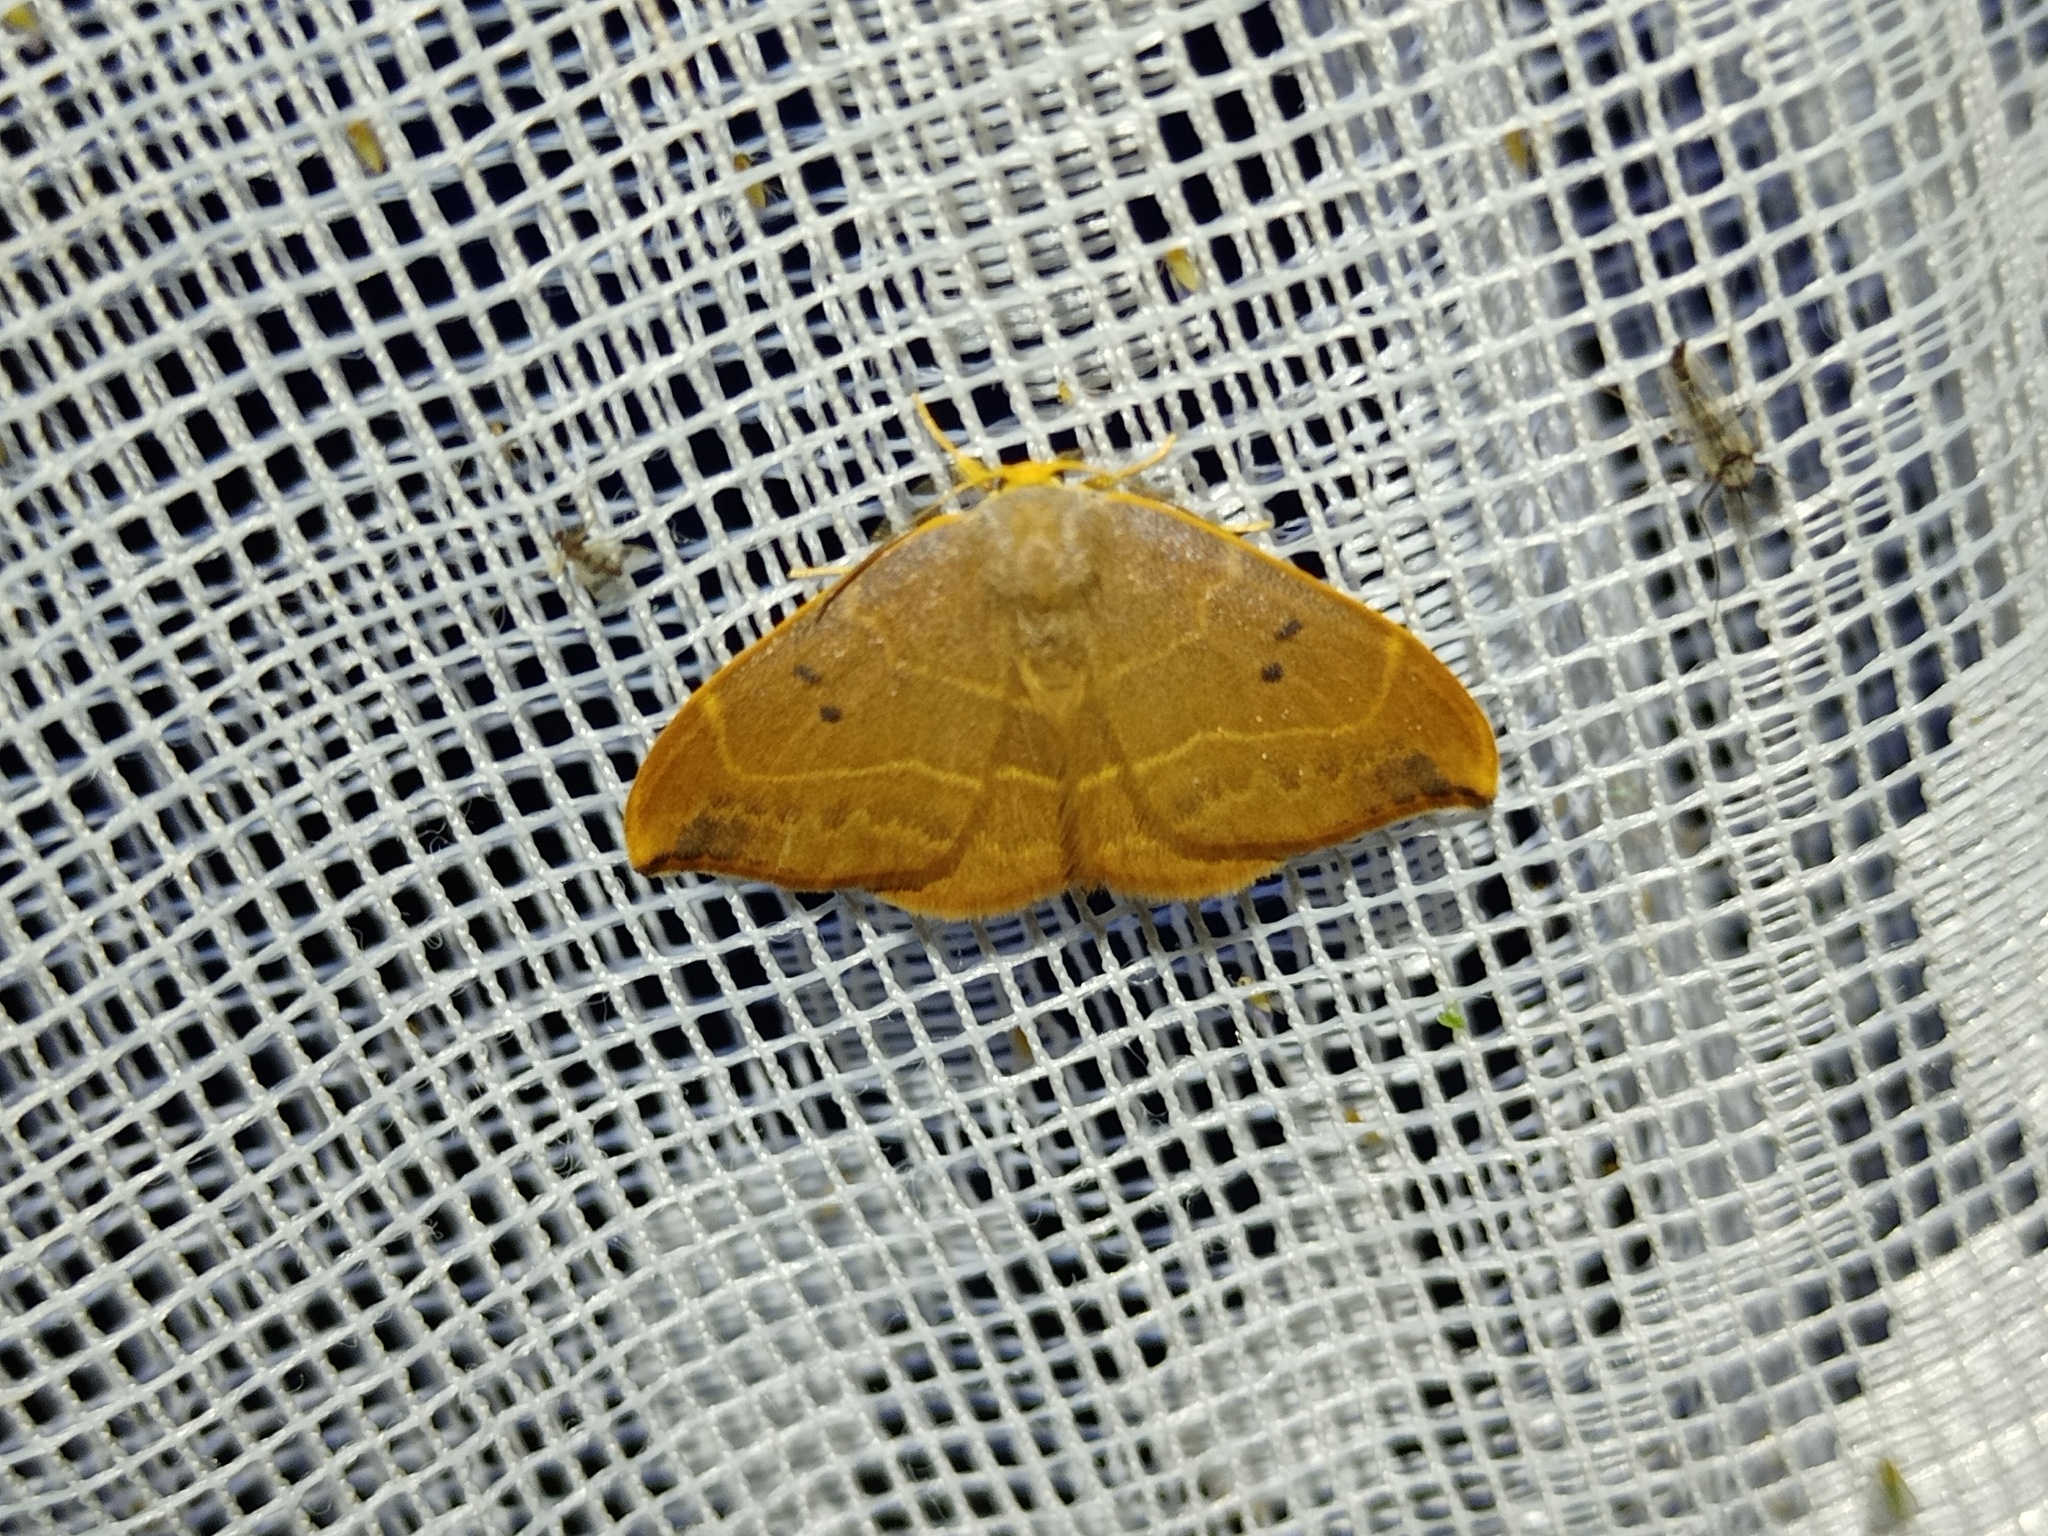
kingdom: Animalia
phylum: Arthropoda
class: Insecta
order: Lepidoptera
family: Drepanidae
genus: Watsonalla
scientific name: Watsonalla binaria
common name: Oak hook-tip
